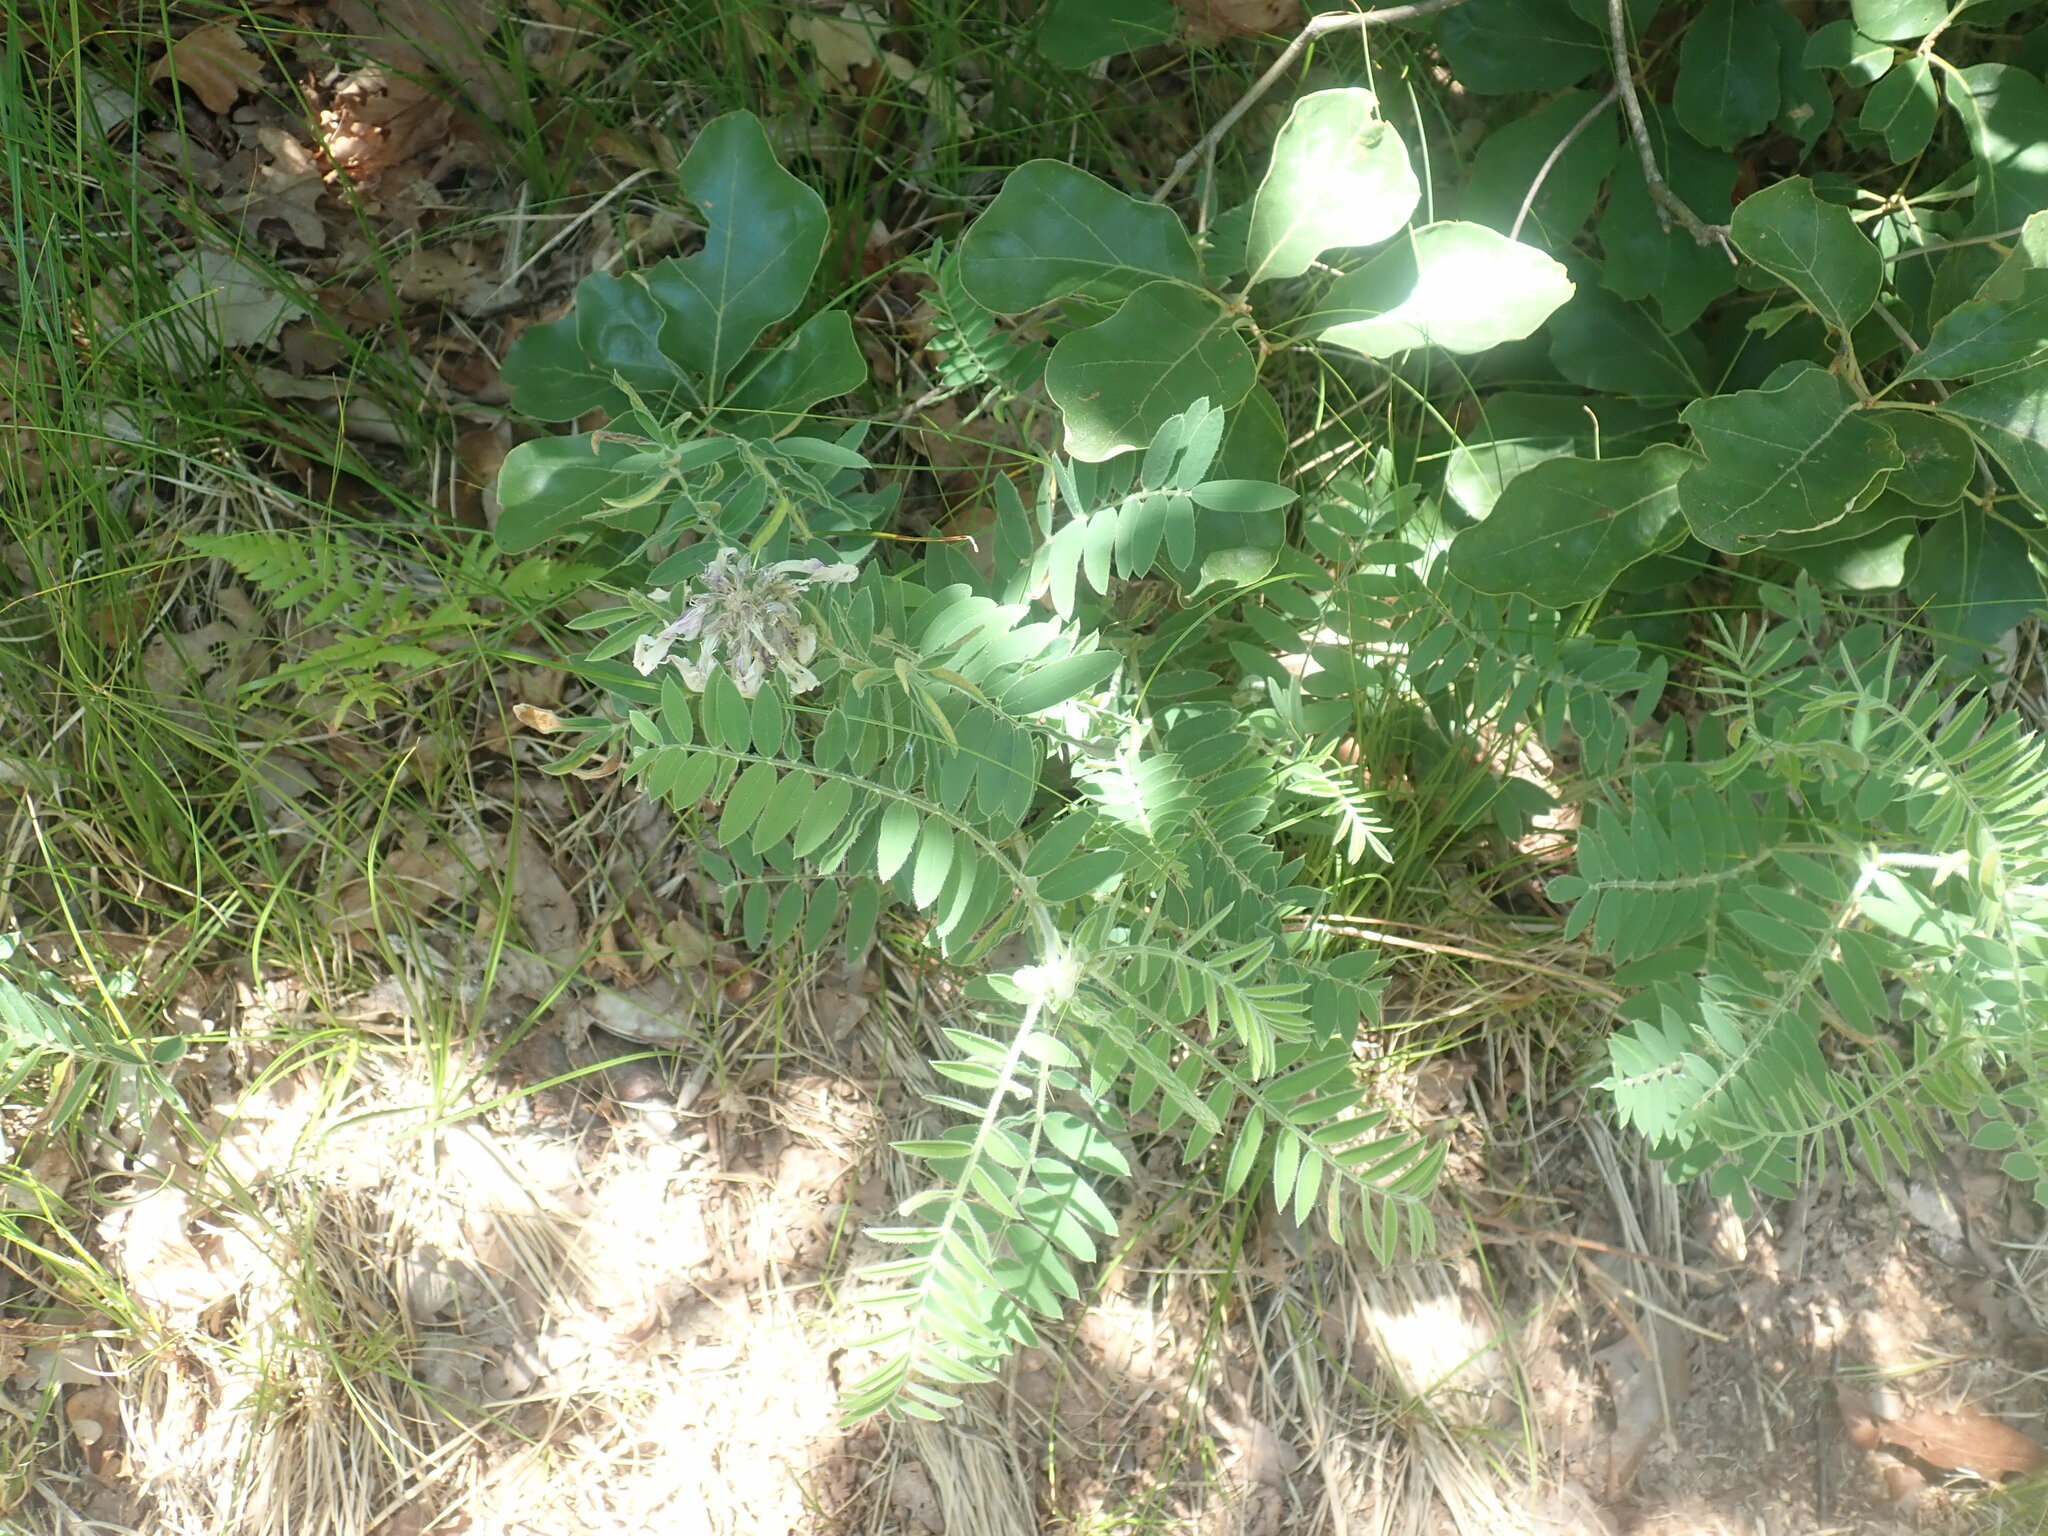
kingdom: Plantae
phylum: Tracheophyta
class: Magnoliopsida
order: Fabales
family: Fabaceae
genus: Tephrosia
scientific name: Tephrosia virginiana
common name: Rabbit-pea
